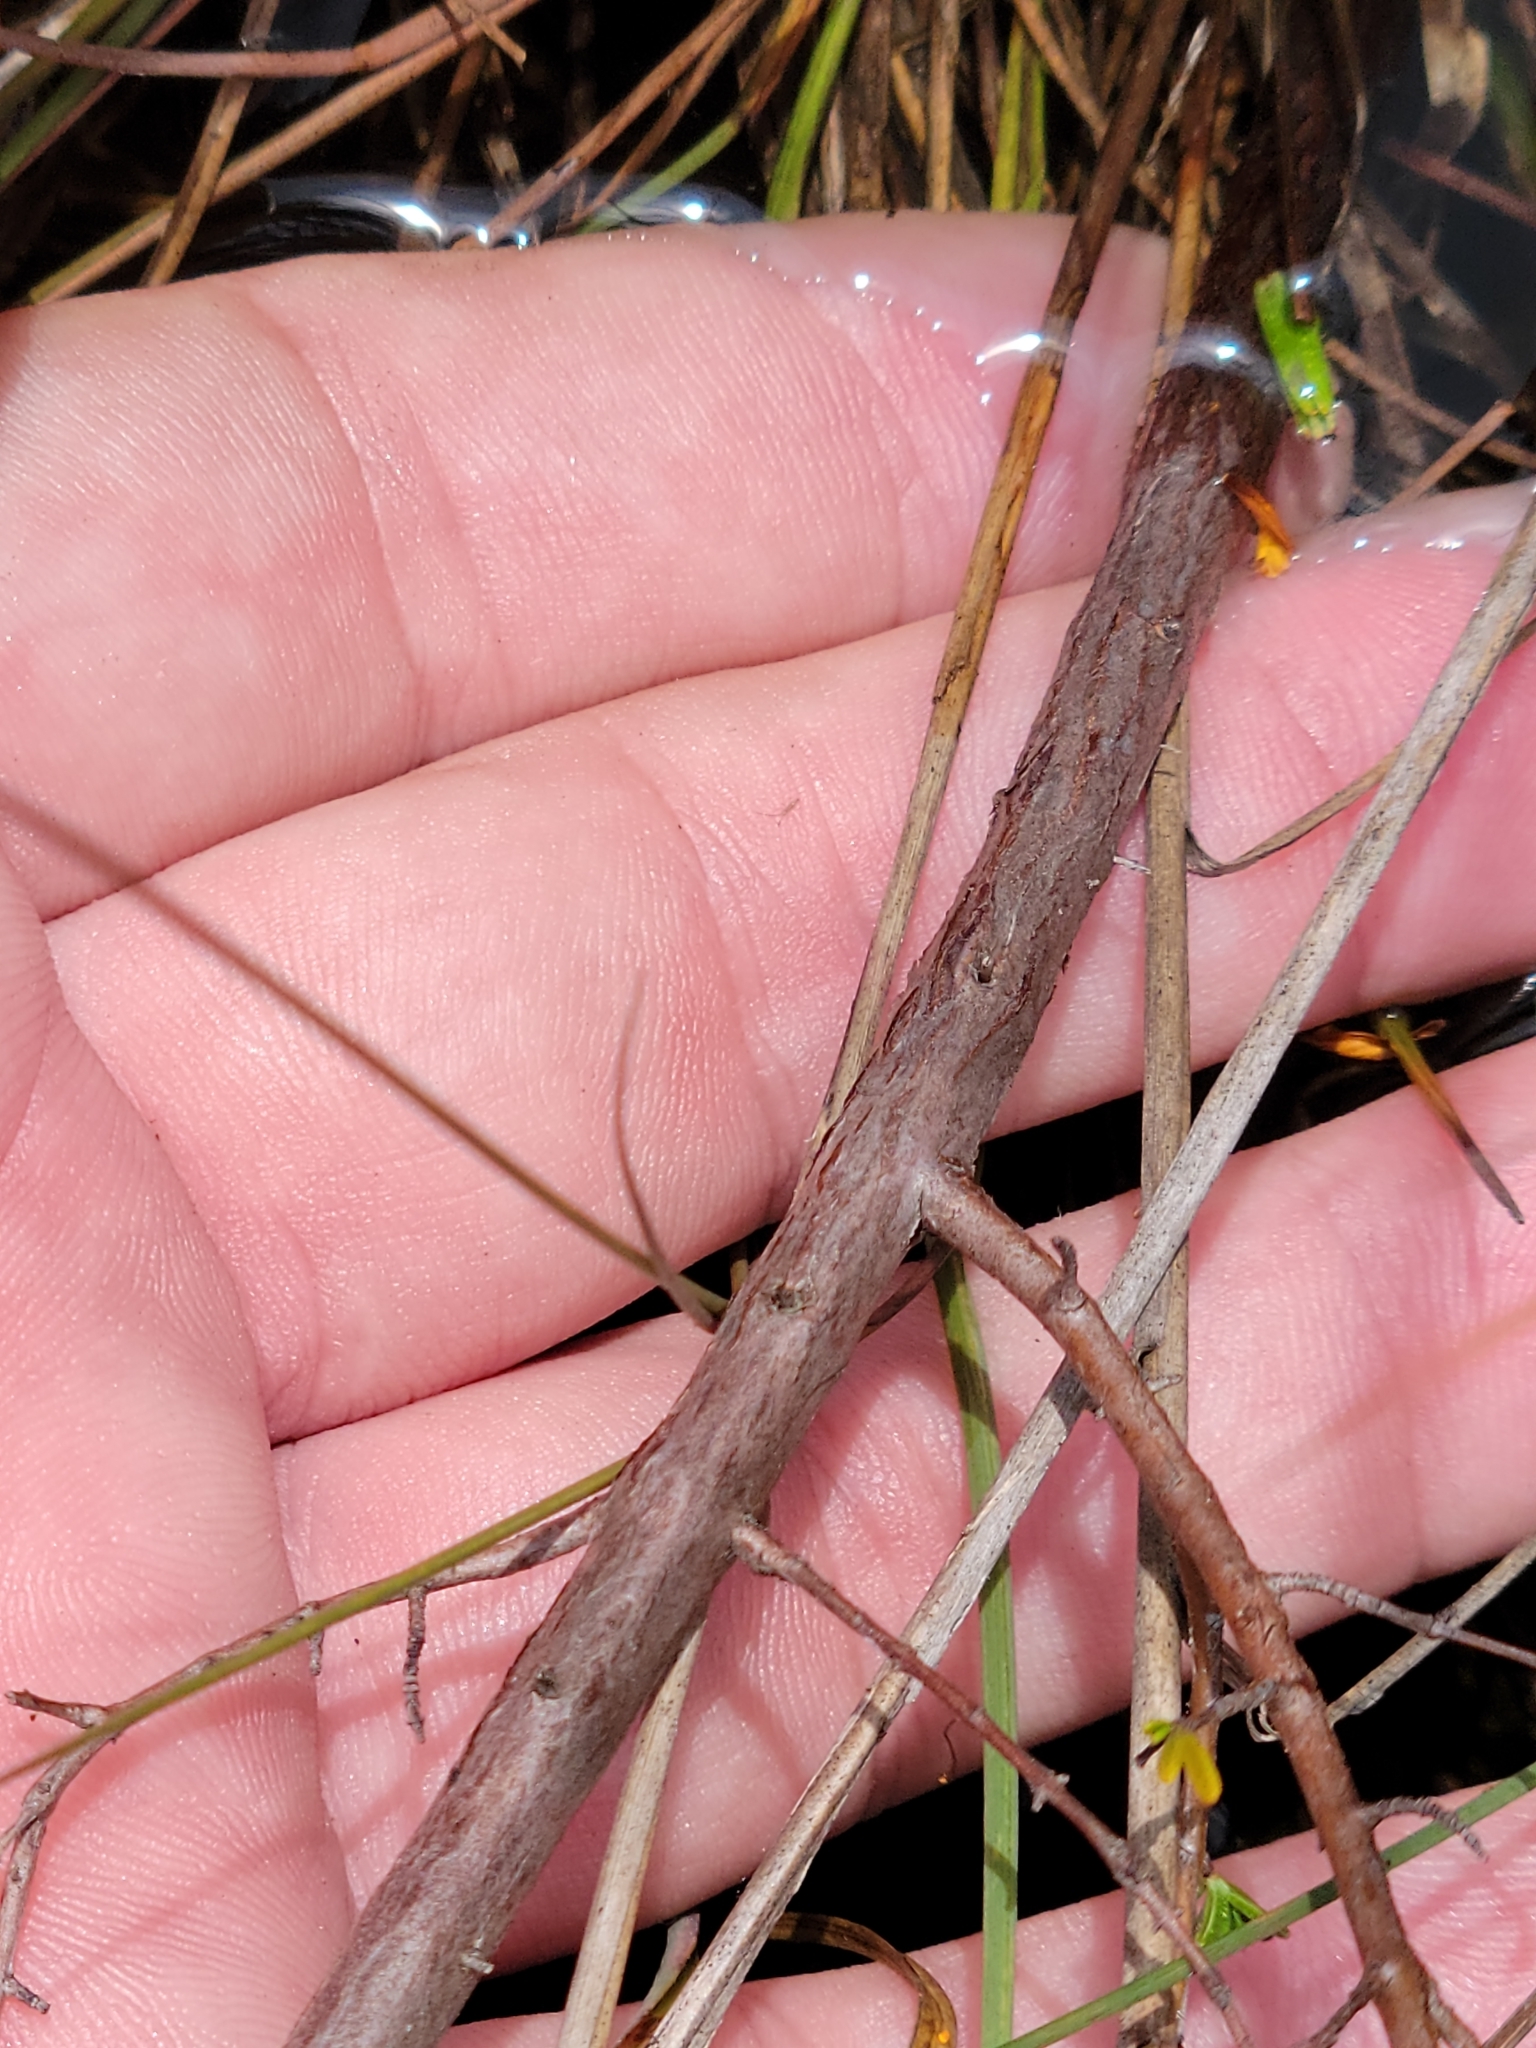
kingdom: Plantae
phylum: Tracheophyta
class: Magnoliopsida
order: Malpighiales
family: Hypericaceae
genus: Hypericum
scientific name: Hypericum limosum
